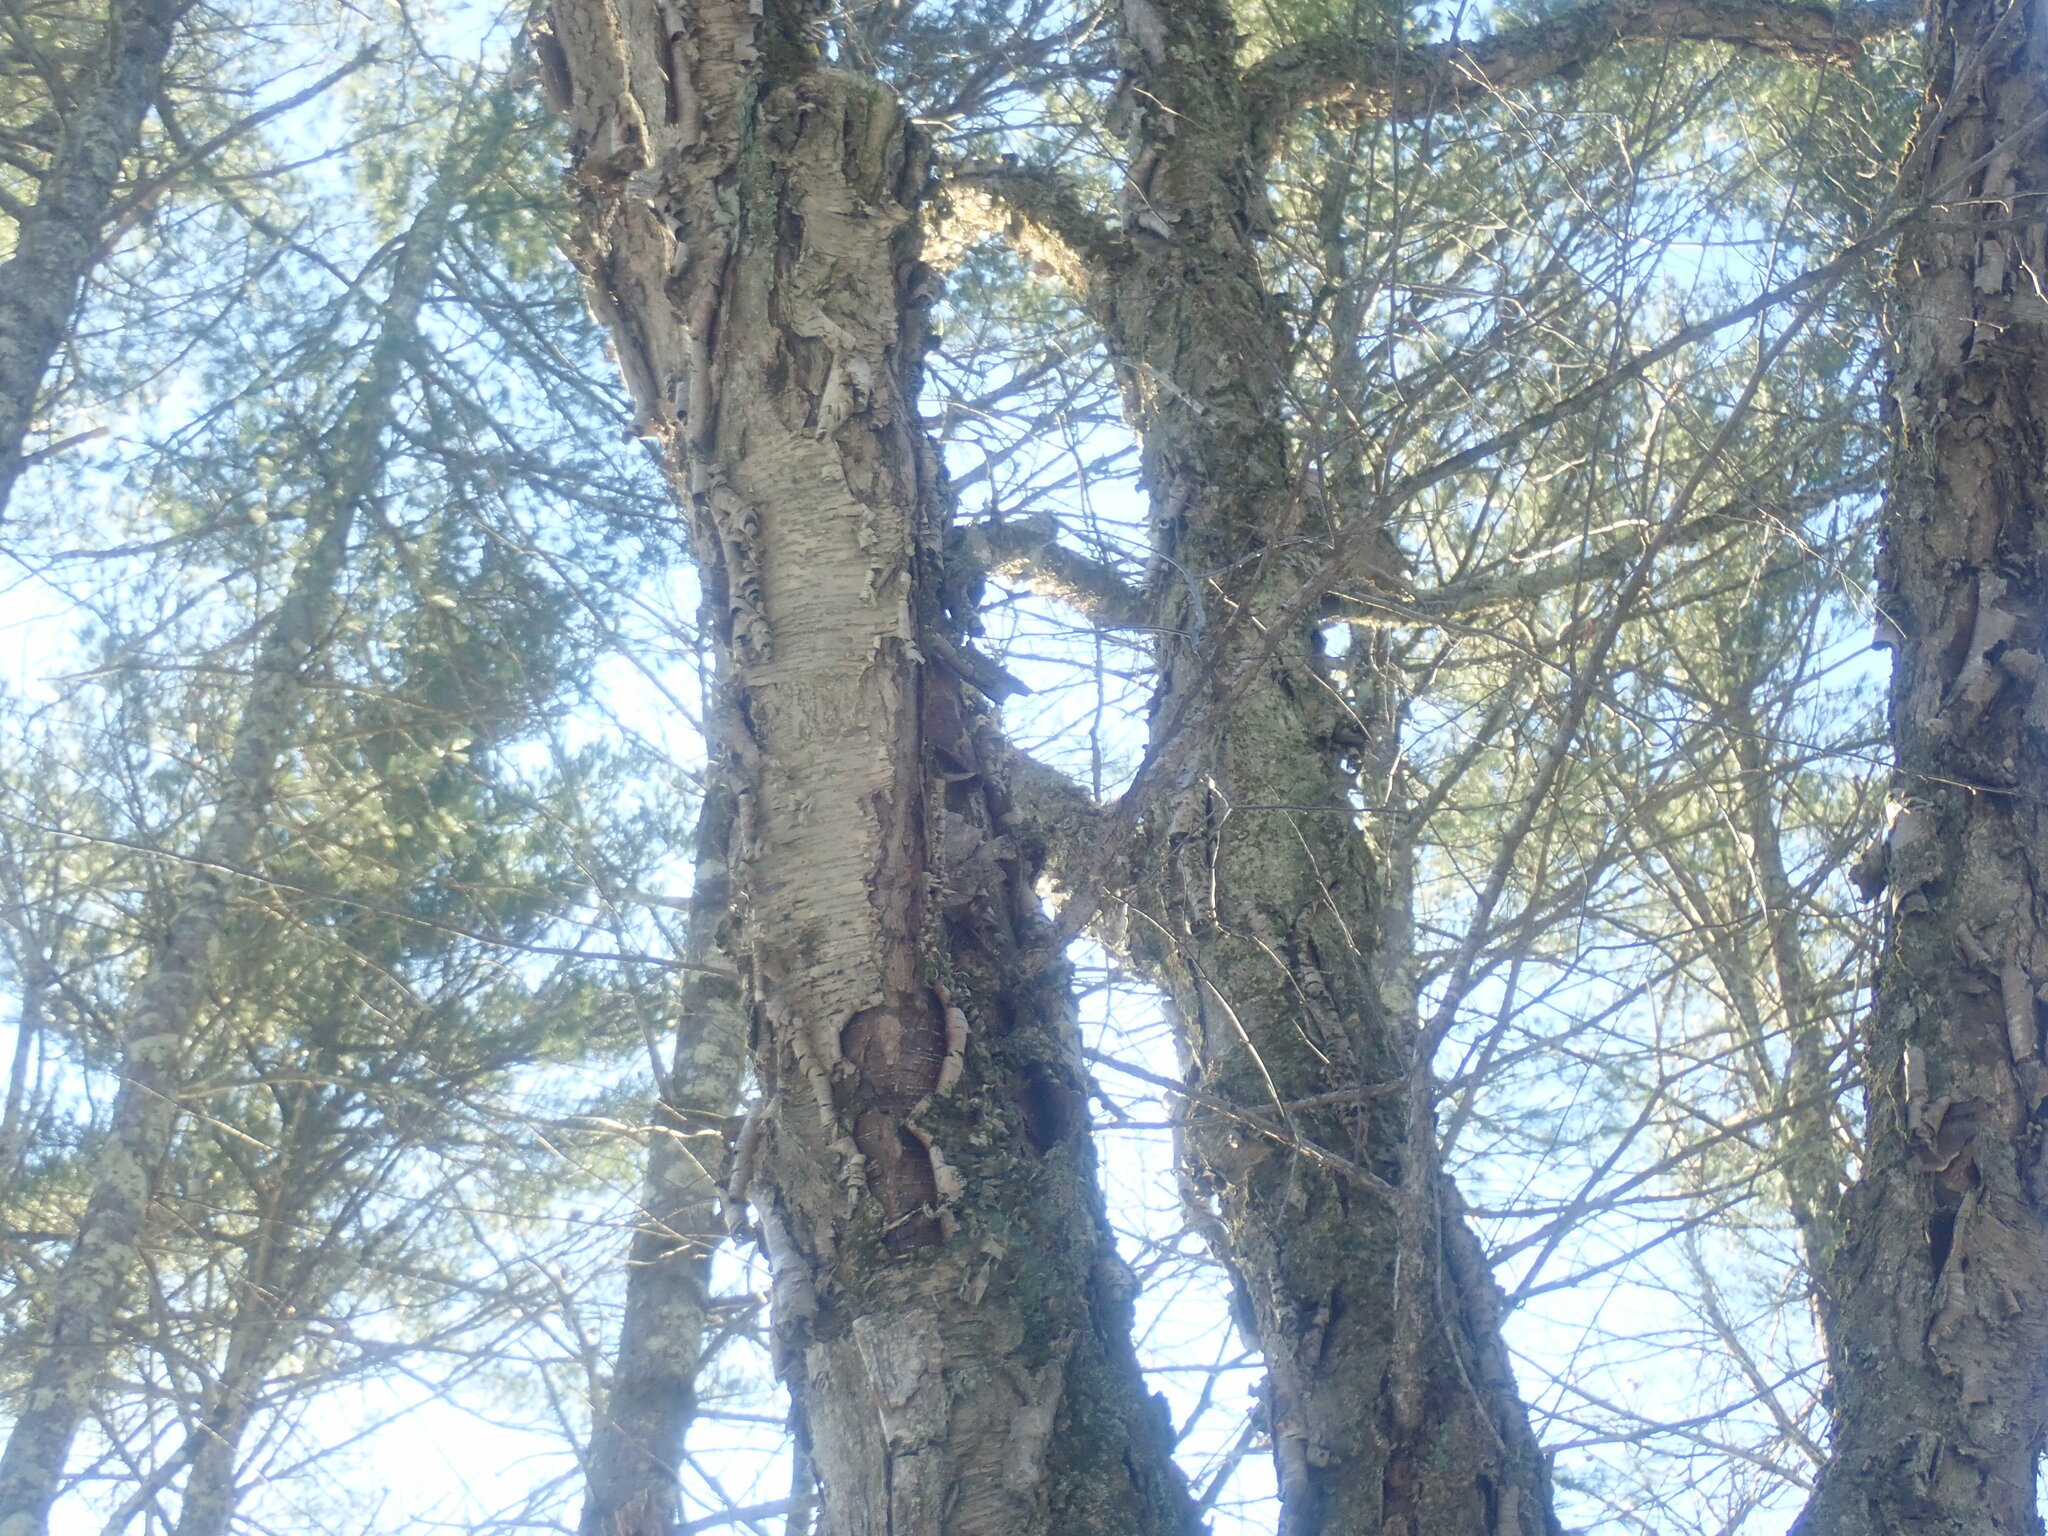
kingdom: Plantae
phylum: Tracheophyta
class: Magnoliopsida
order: Fagales
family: Betulaceae
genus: Betula
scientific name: Betula alleghaniensis
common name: Yellow birch
